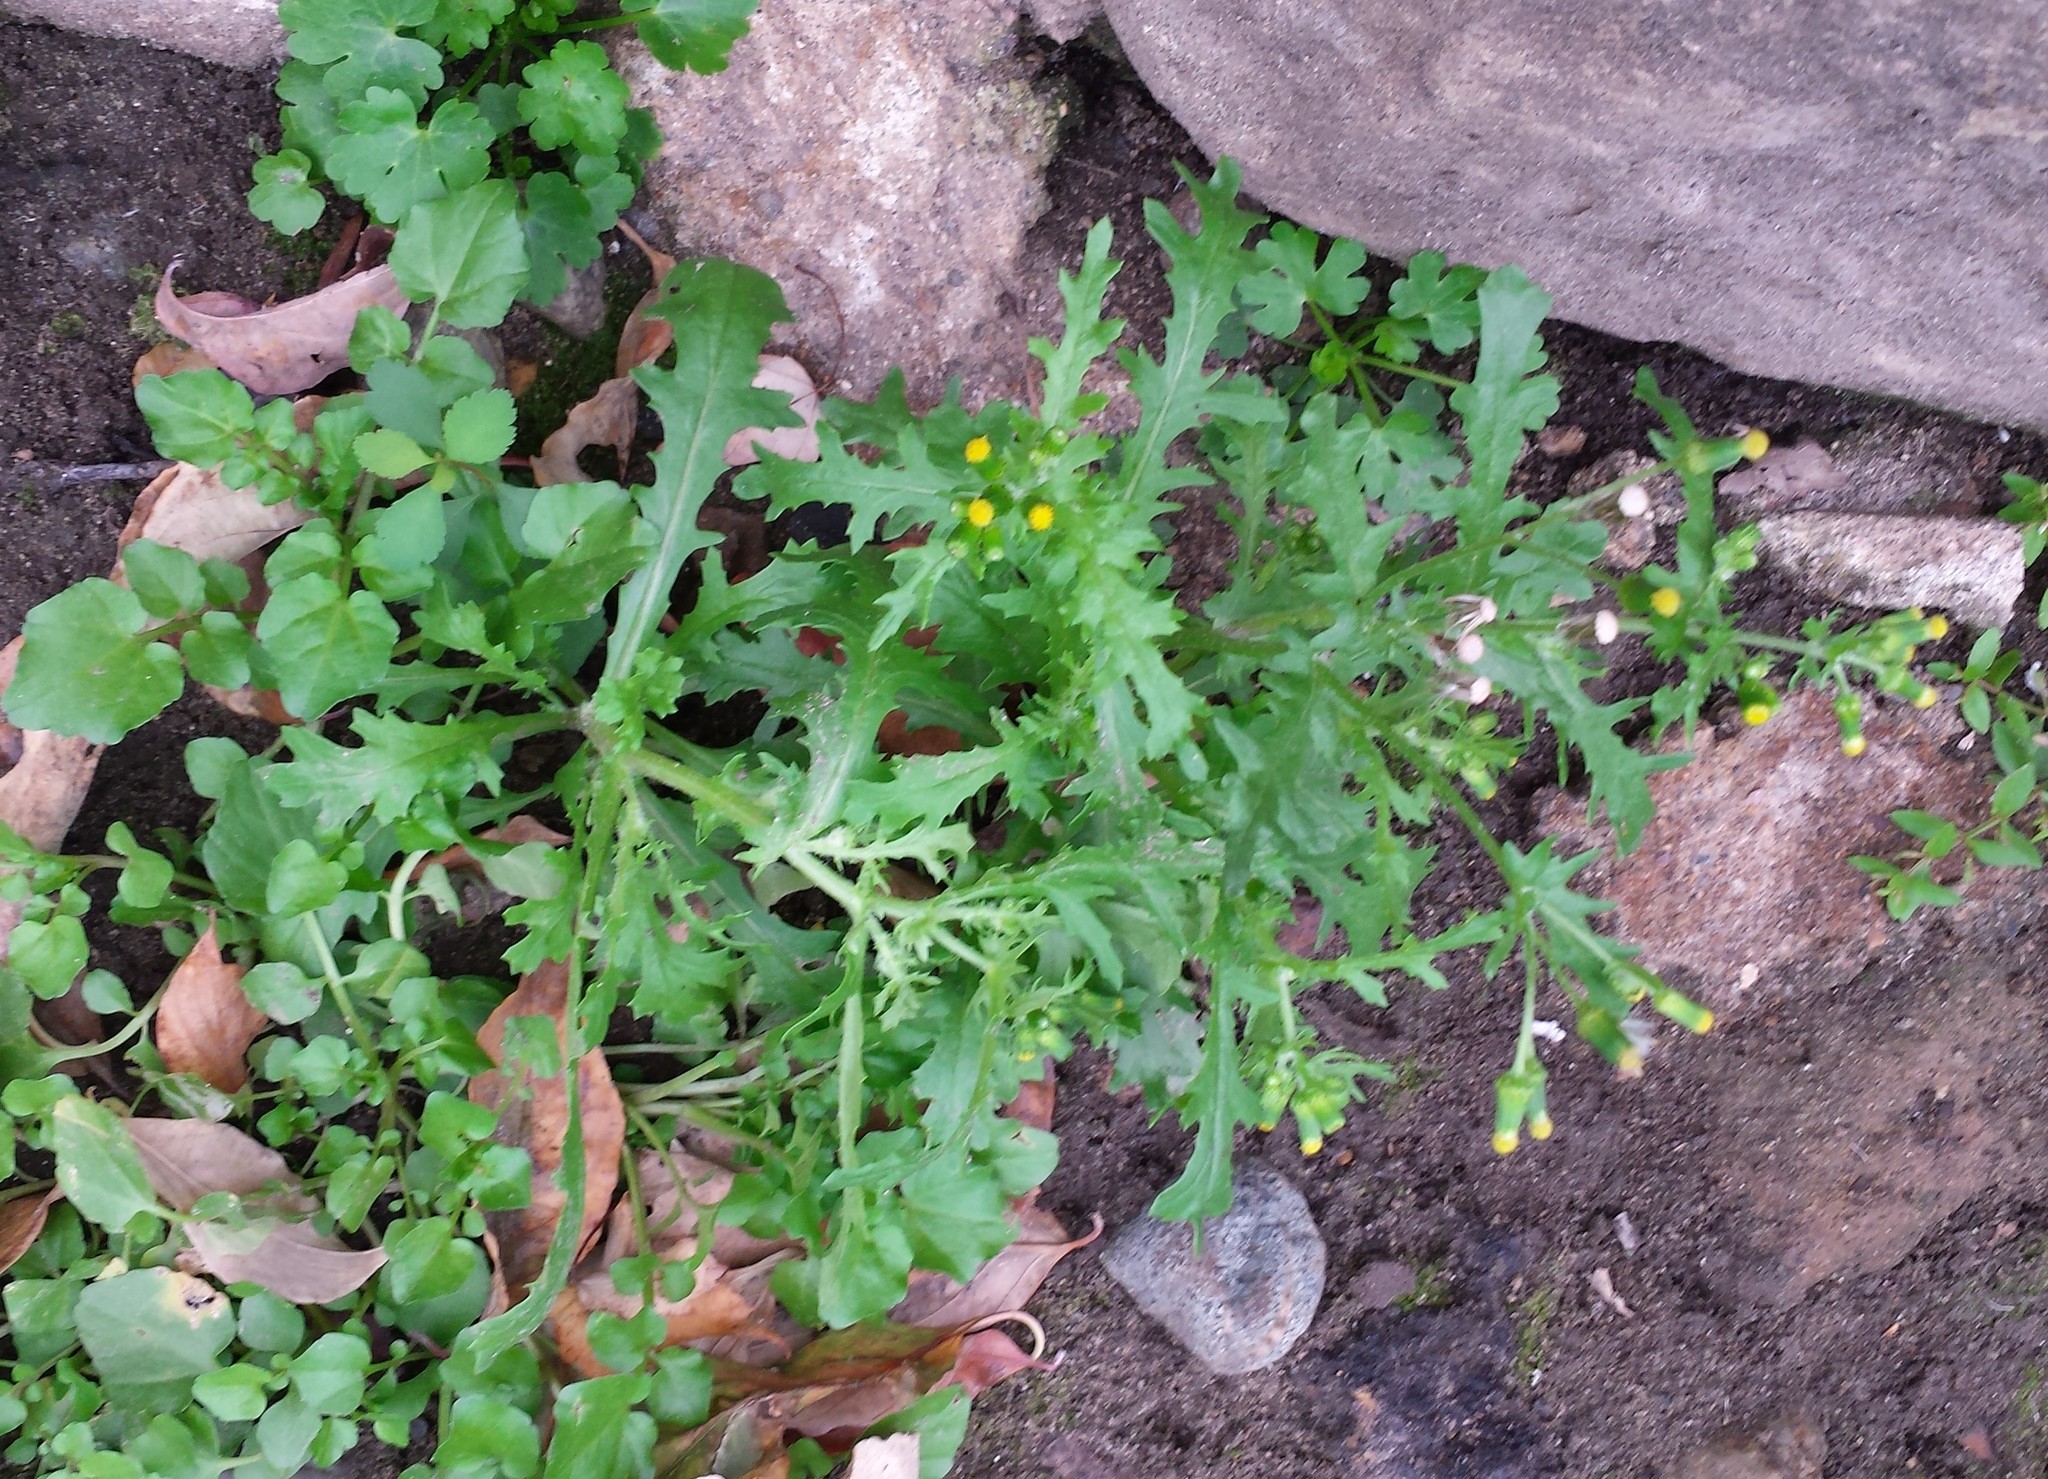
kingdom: Plantae
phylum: Tracheophyta
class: Magnoliopsida
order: Asterales
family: Asteraceae
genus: Senecio
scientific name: Senecio vulgaris
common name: Old-man-in-the-spring
